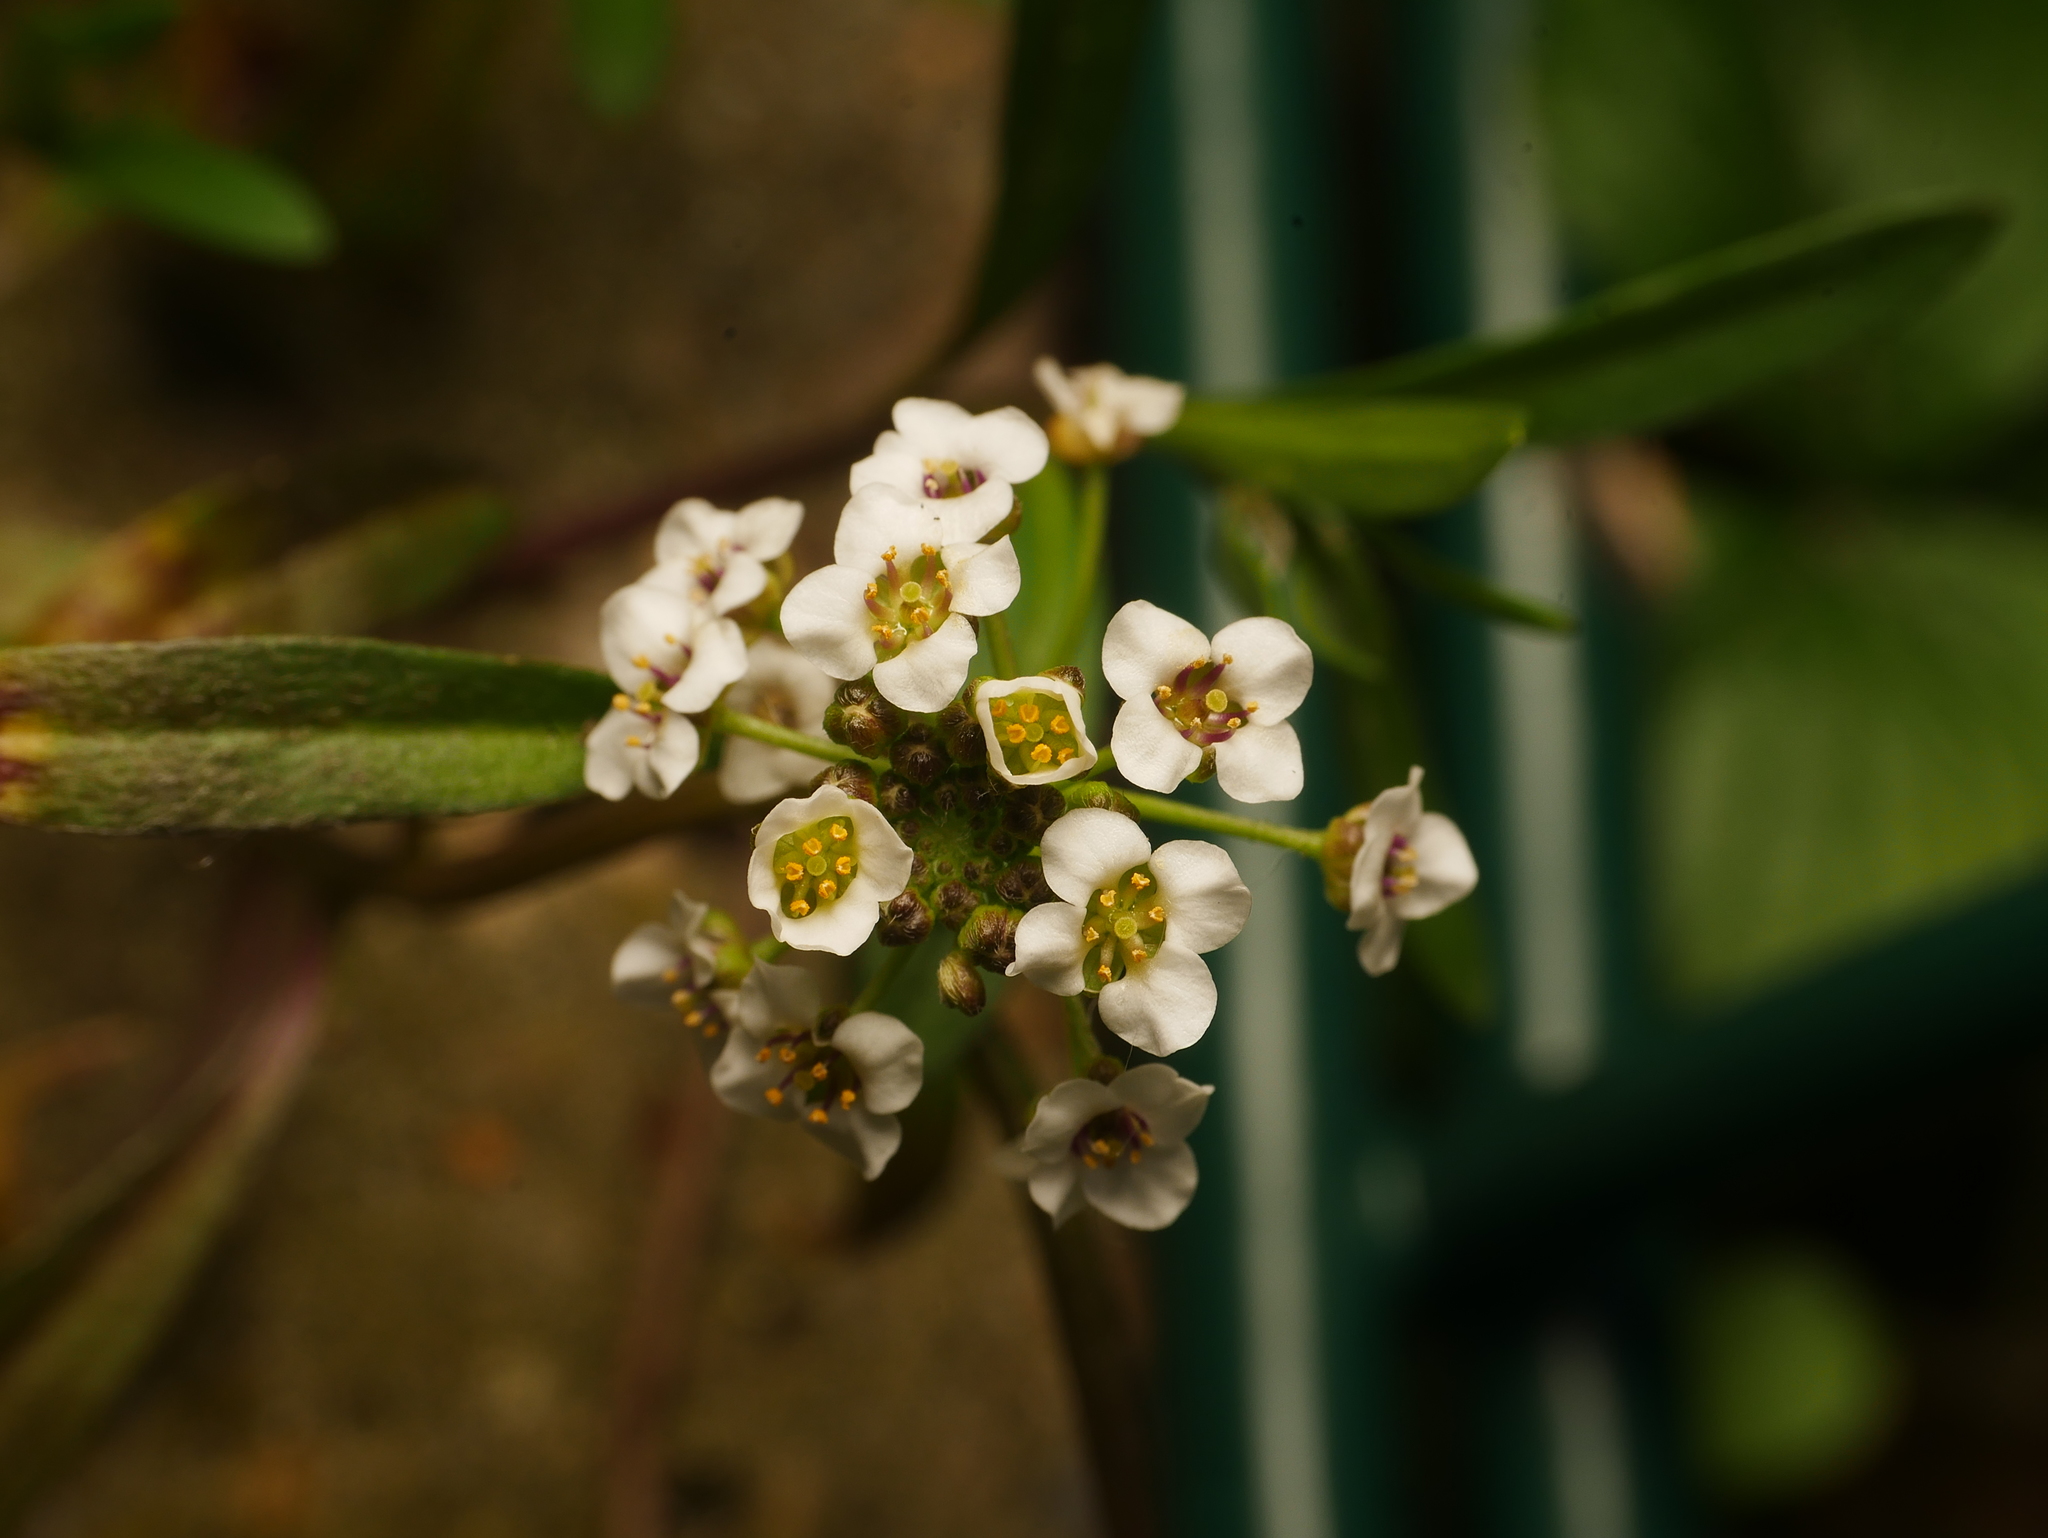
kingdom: Plantae
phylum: Tracheophyta
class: Magnoliopsida
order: Brassicales
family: Brassicaceae
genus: Lobularia
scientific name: Lobularia maritima
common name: Sweet alison
